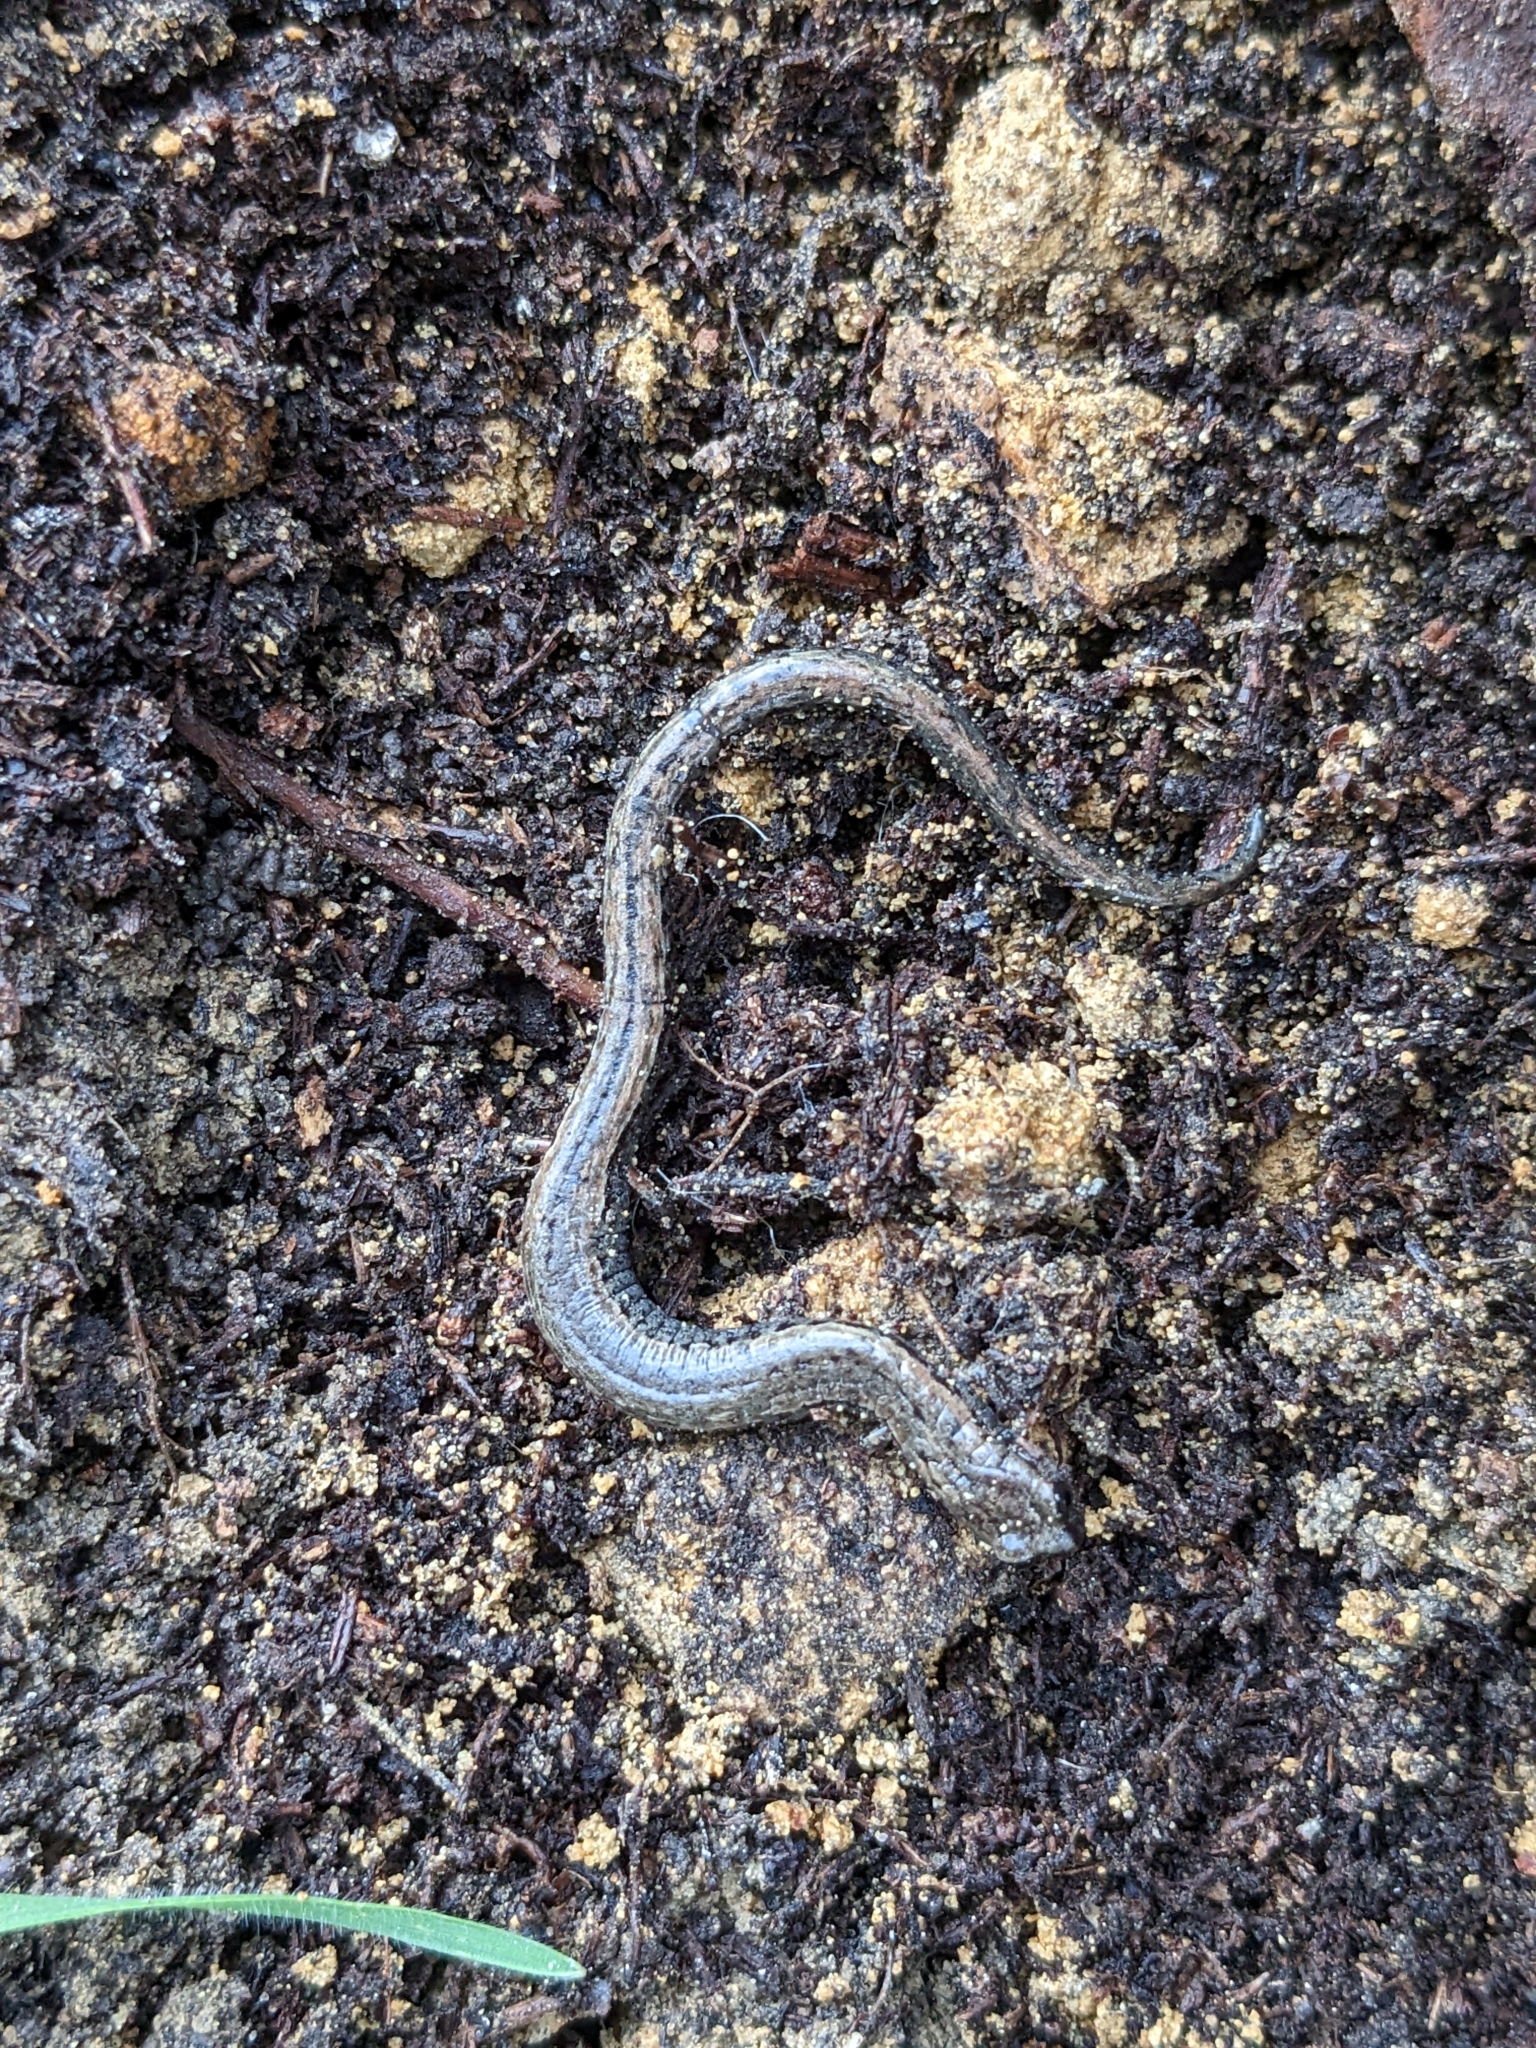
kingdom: Animalia
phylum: Chordata
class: Amphibia
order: Caudata
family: Plethodontidae
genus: Batrachoseps
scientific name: Batrachoseps attenuatus
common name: California slender salamander
